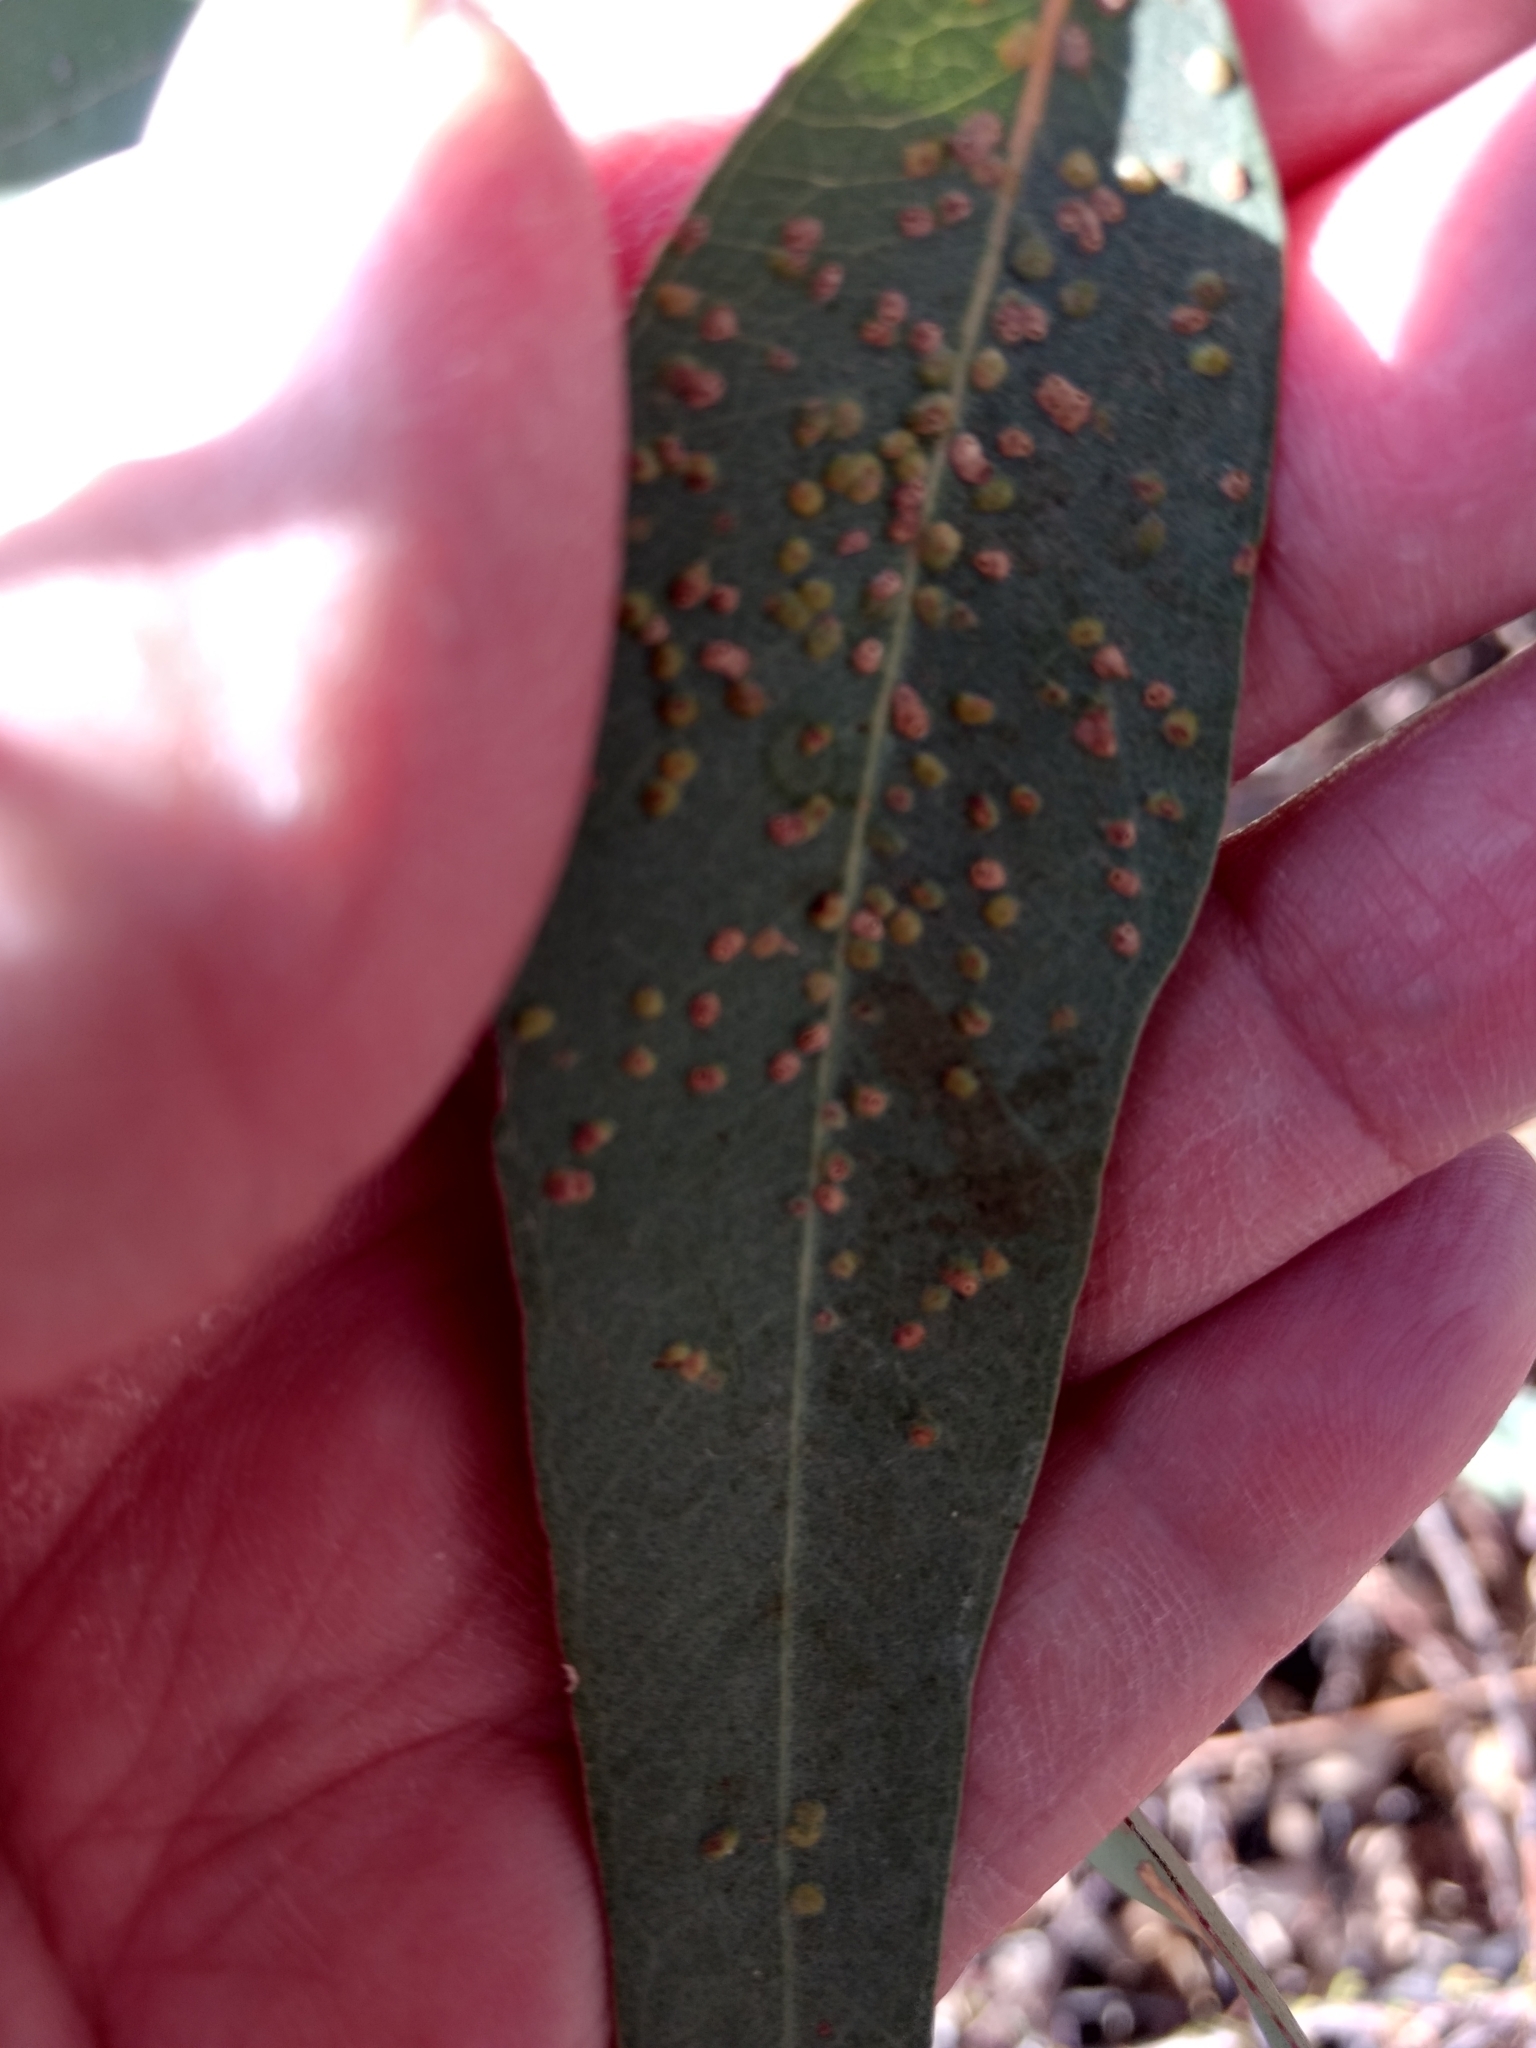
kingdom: Animalia
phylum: Arthropoda
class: Insecta
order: Hymenoptera
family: Eulophidae
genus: Ophelimus
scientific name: Ophelimus maskelli
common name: Gall wasp
